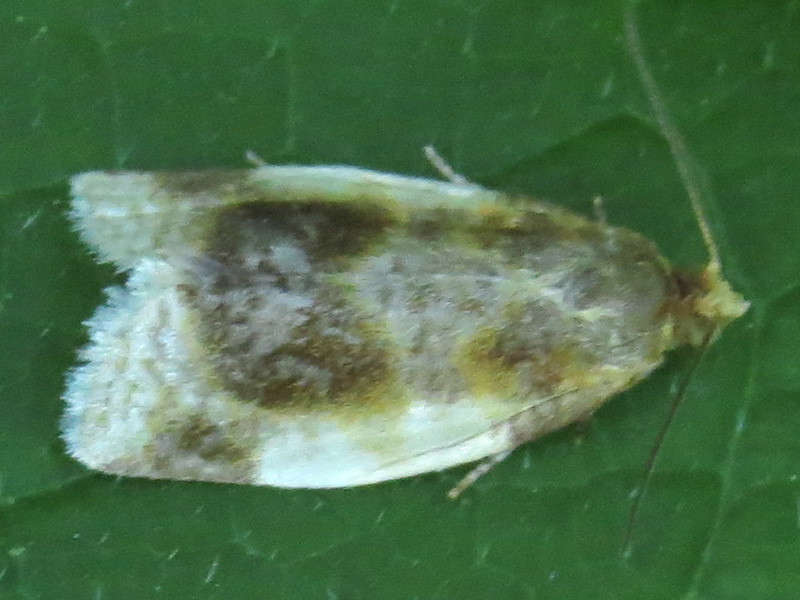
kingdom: Animalia
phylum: Arthropoda
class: Insecta
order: Lepidoptera
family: Tortricidae
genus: Clepsis
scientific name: Clepsis melaleucanus
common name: American apple tortrix
